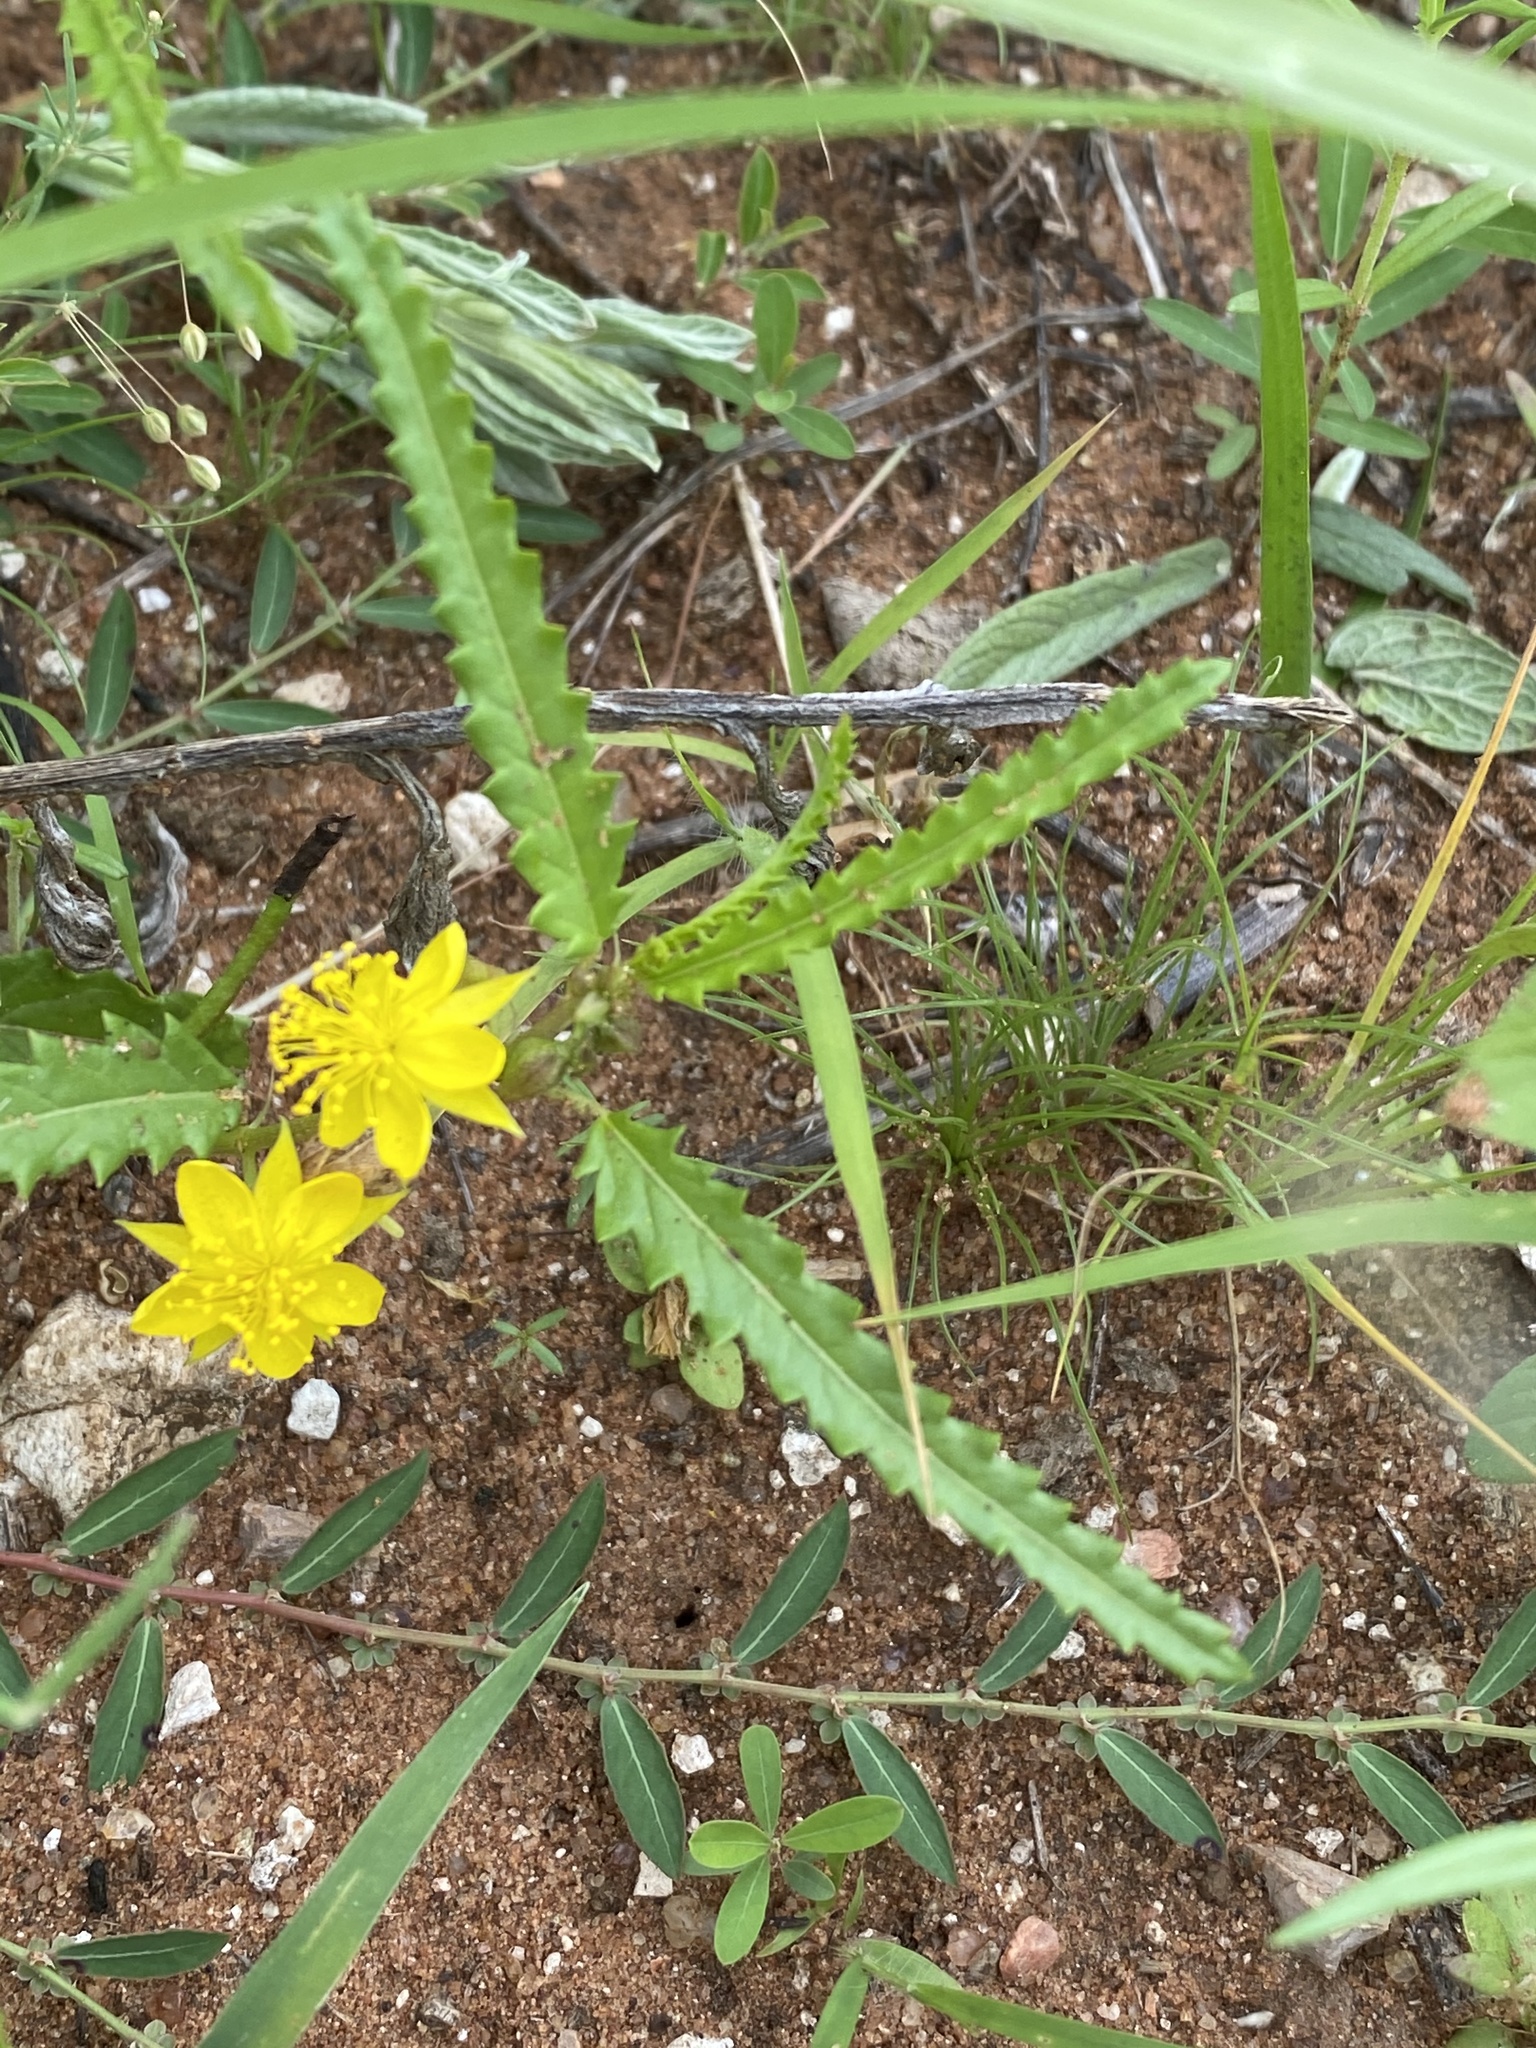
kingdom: Plantae
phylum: Tracheophyta
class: Magnoliopsida
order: Malvales
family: Malvaceae
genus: Corchorus
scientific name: Corchorus asplenifolius
